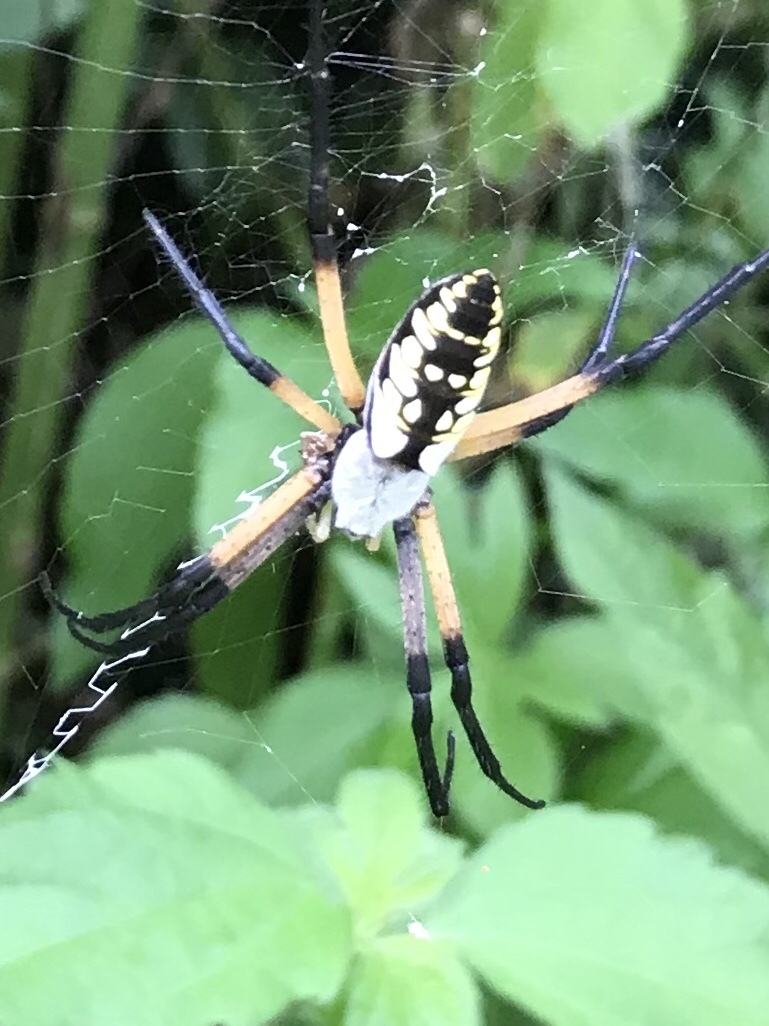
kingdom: Animalia
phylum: Arthropoda
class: Arachnida
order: Araneae
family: Araneidae
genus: Argiope
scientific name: Argiope aurantia
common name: Orb weavers
